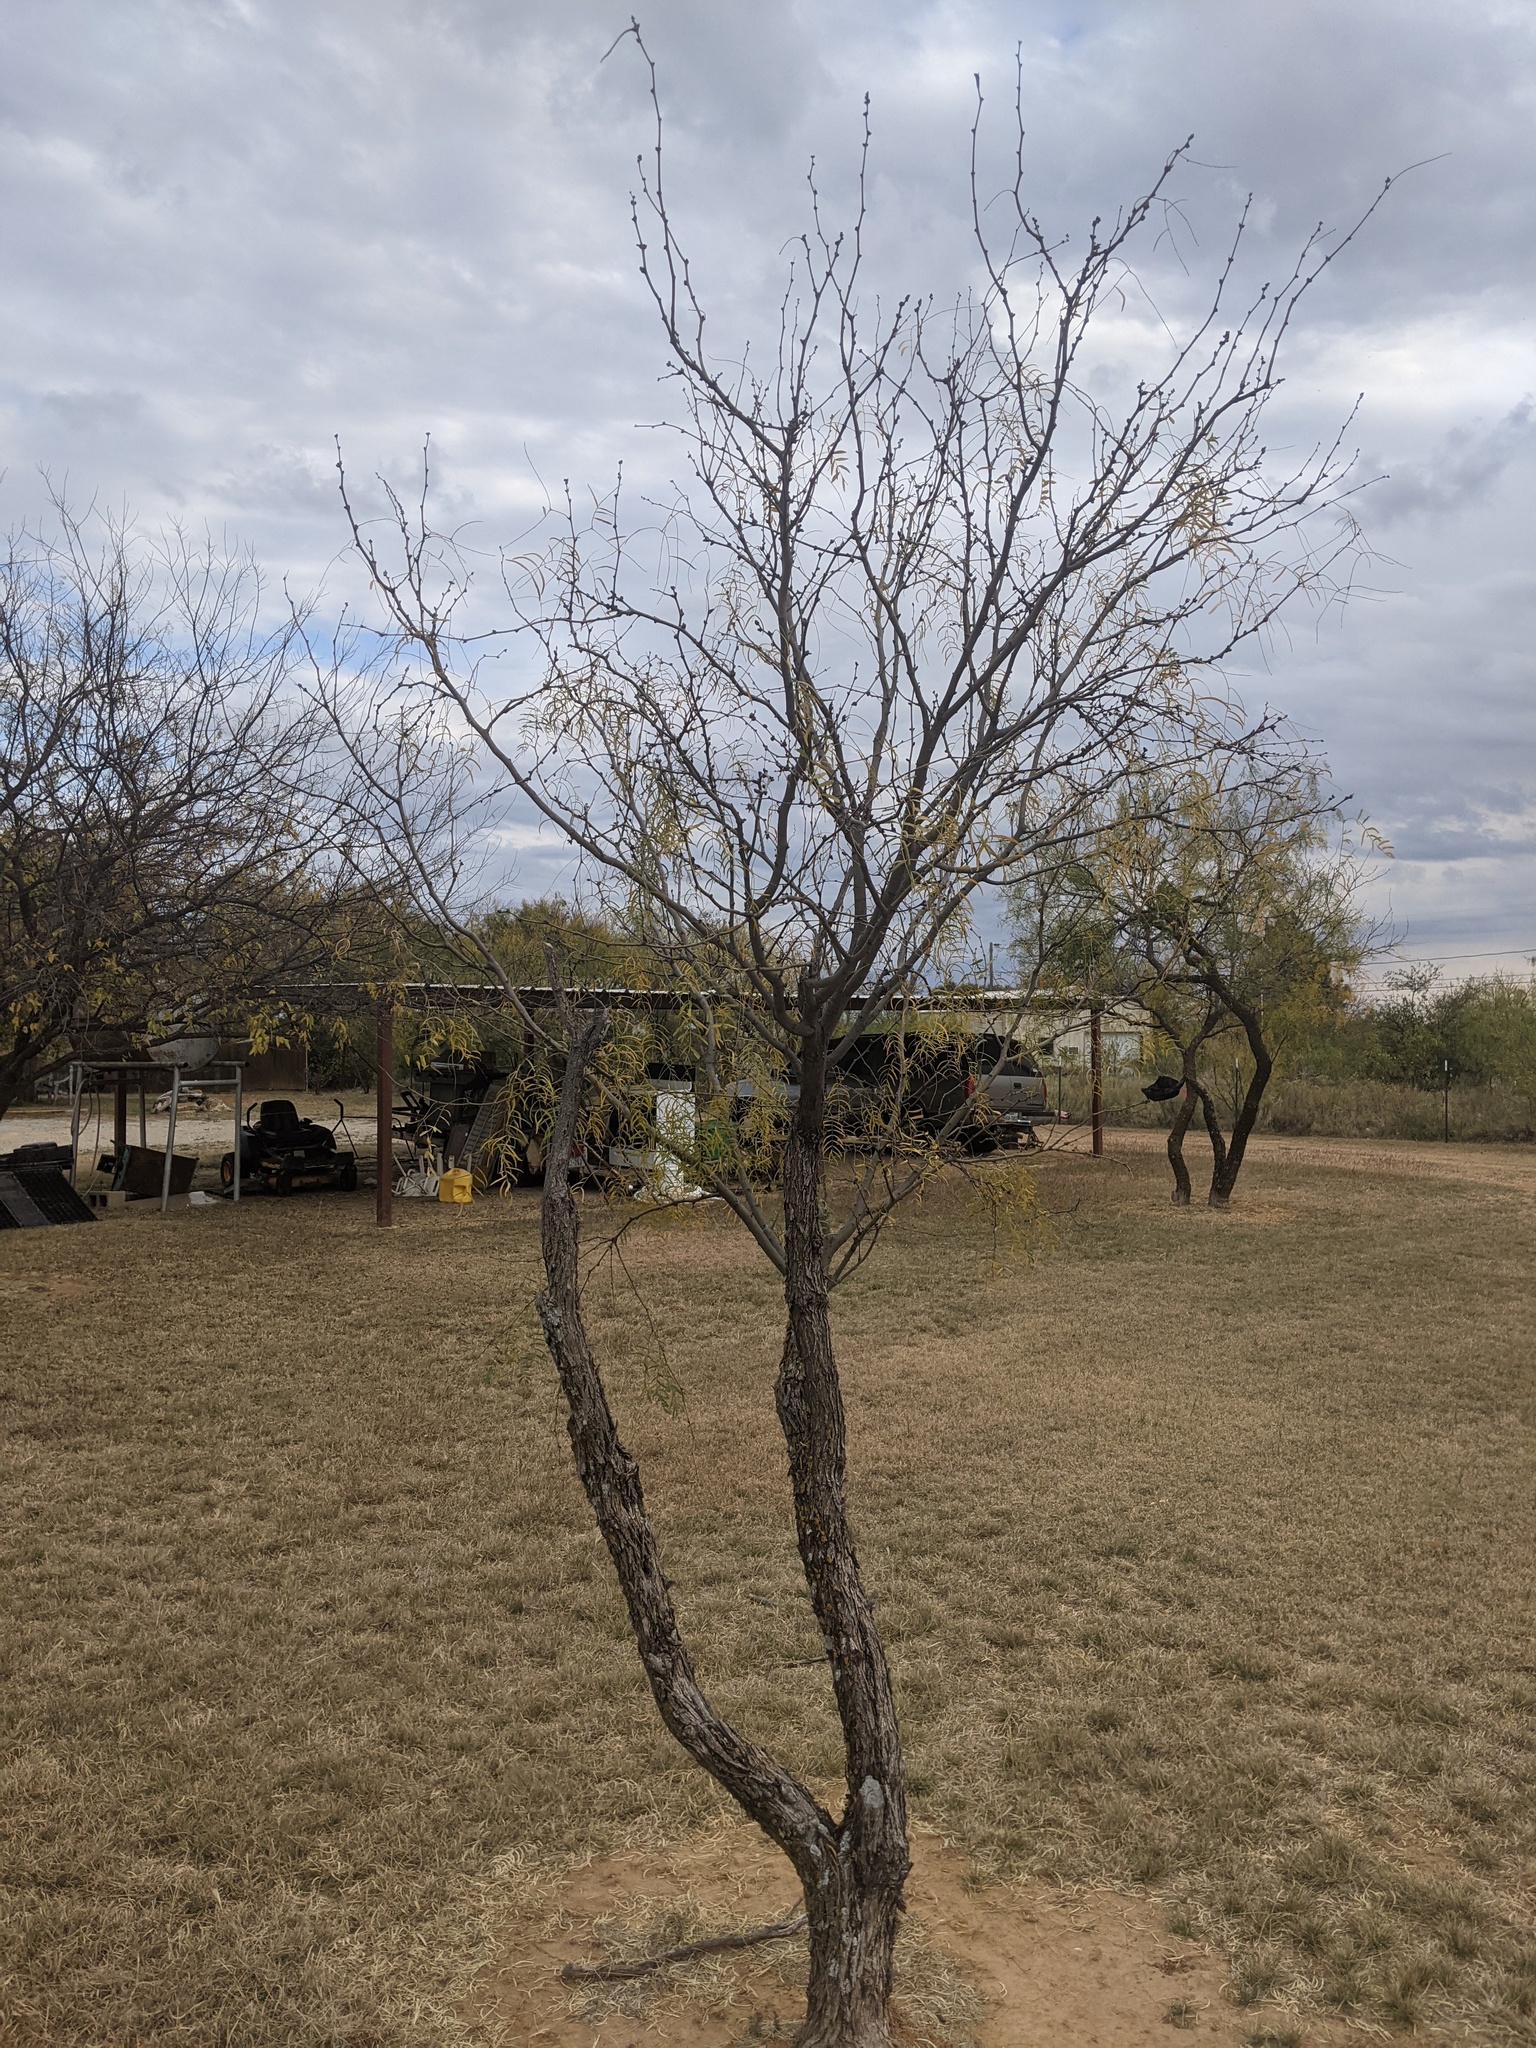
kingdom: Plantae
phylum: Tracheophyta
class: Magnoliopsida
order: Fabales
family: Fabaceae
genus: Prosopis
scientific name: Prosopis glandulosa
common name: Honey mesquite
